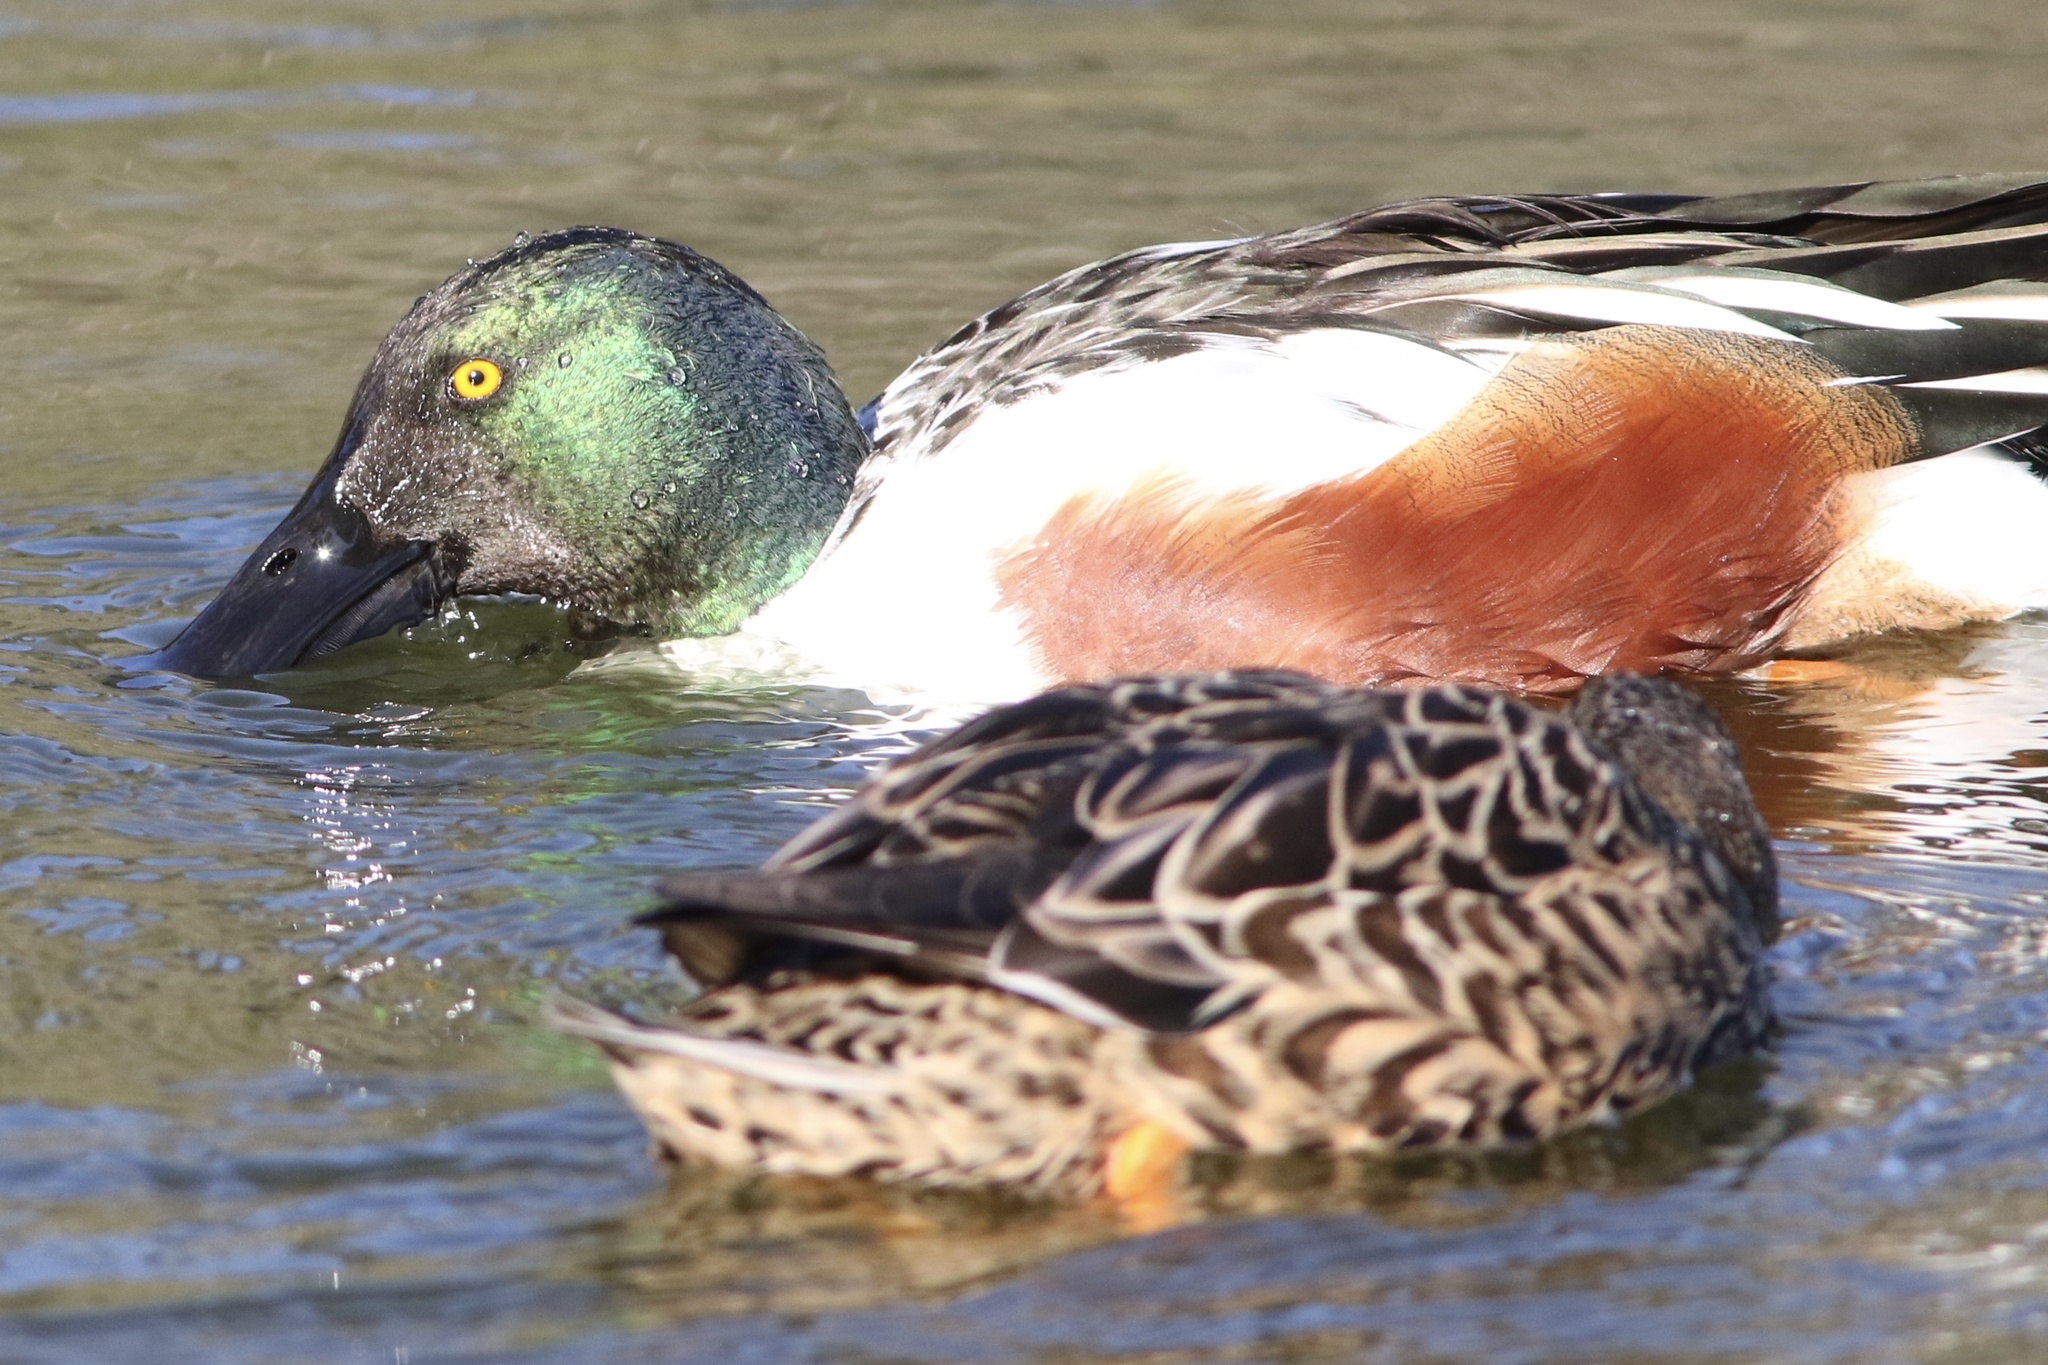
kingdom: Animalia
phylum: Chordata
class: Aves
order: Anseriformes
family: Anatidae
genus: Spatula
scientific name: Spatula clypeata
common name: Northern shoveler
